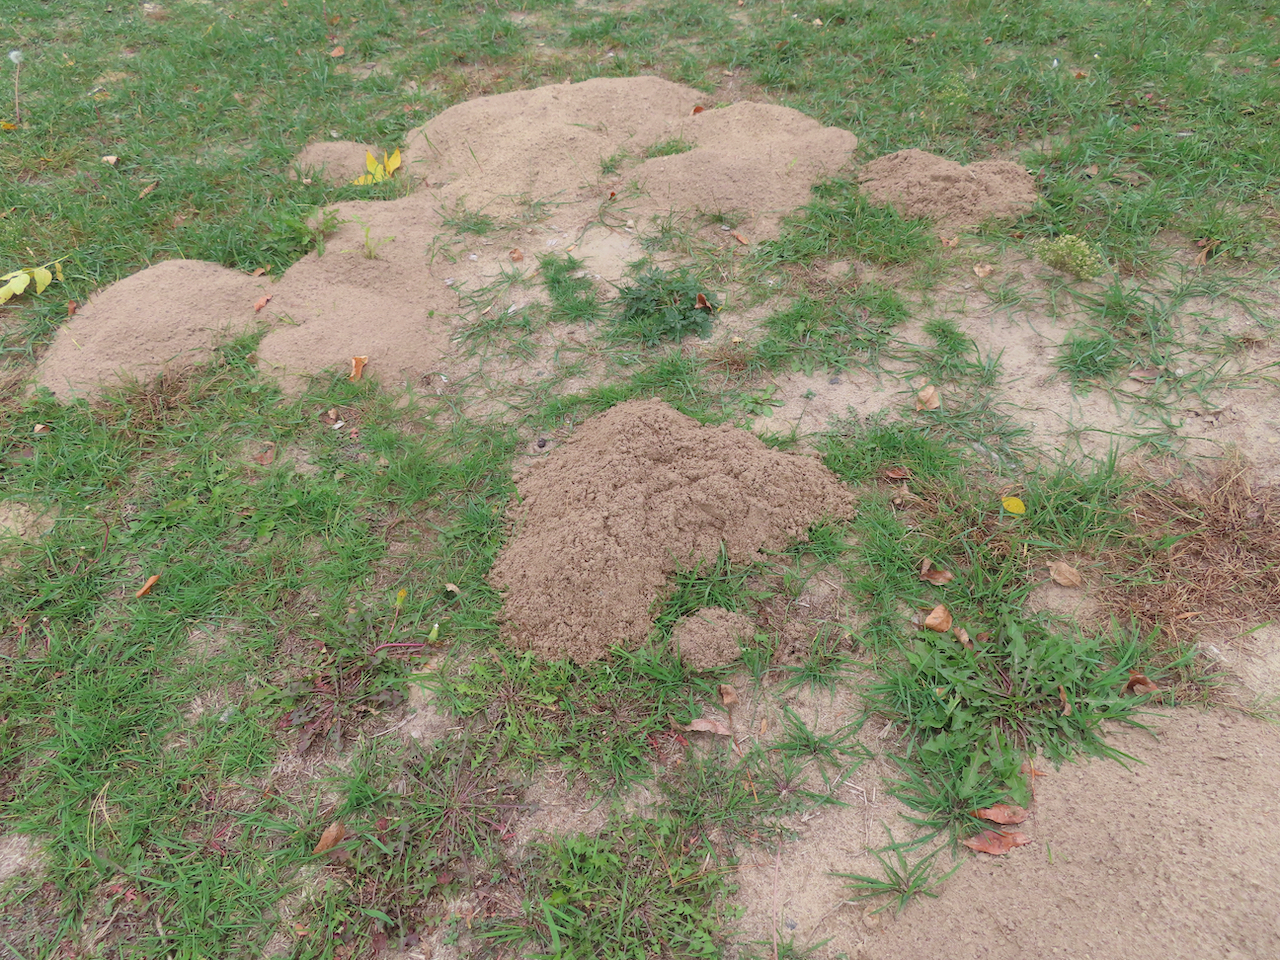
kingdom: Animalia
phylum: Chordata
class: Mammalia
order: Rodentia
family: Geomyidae
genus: Geomys
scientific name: Geomys bursarius
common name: Plains pocket gopher
